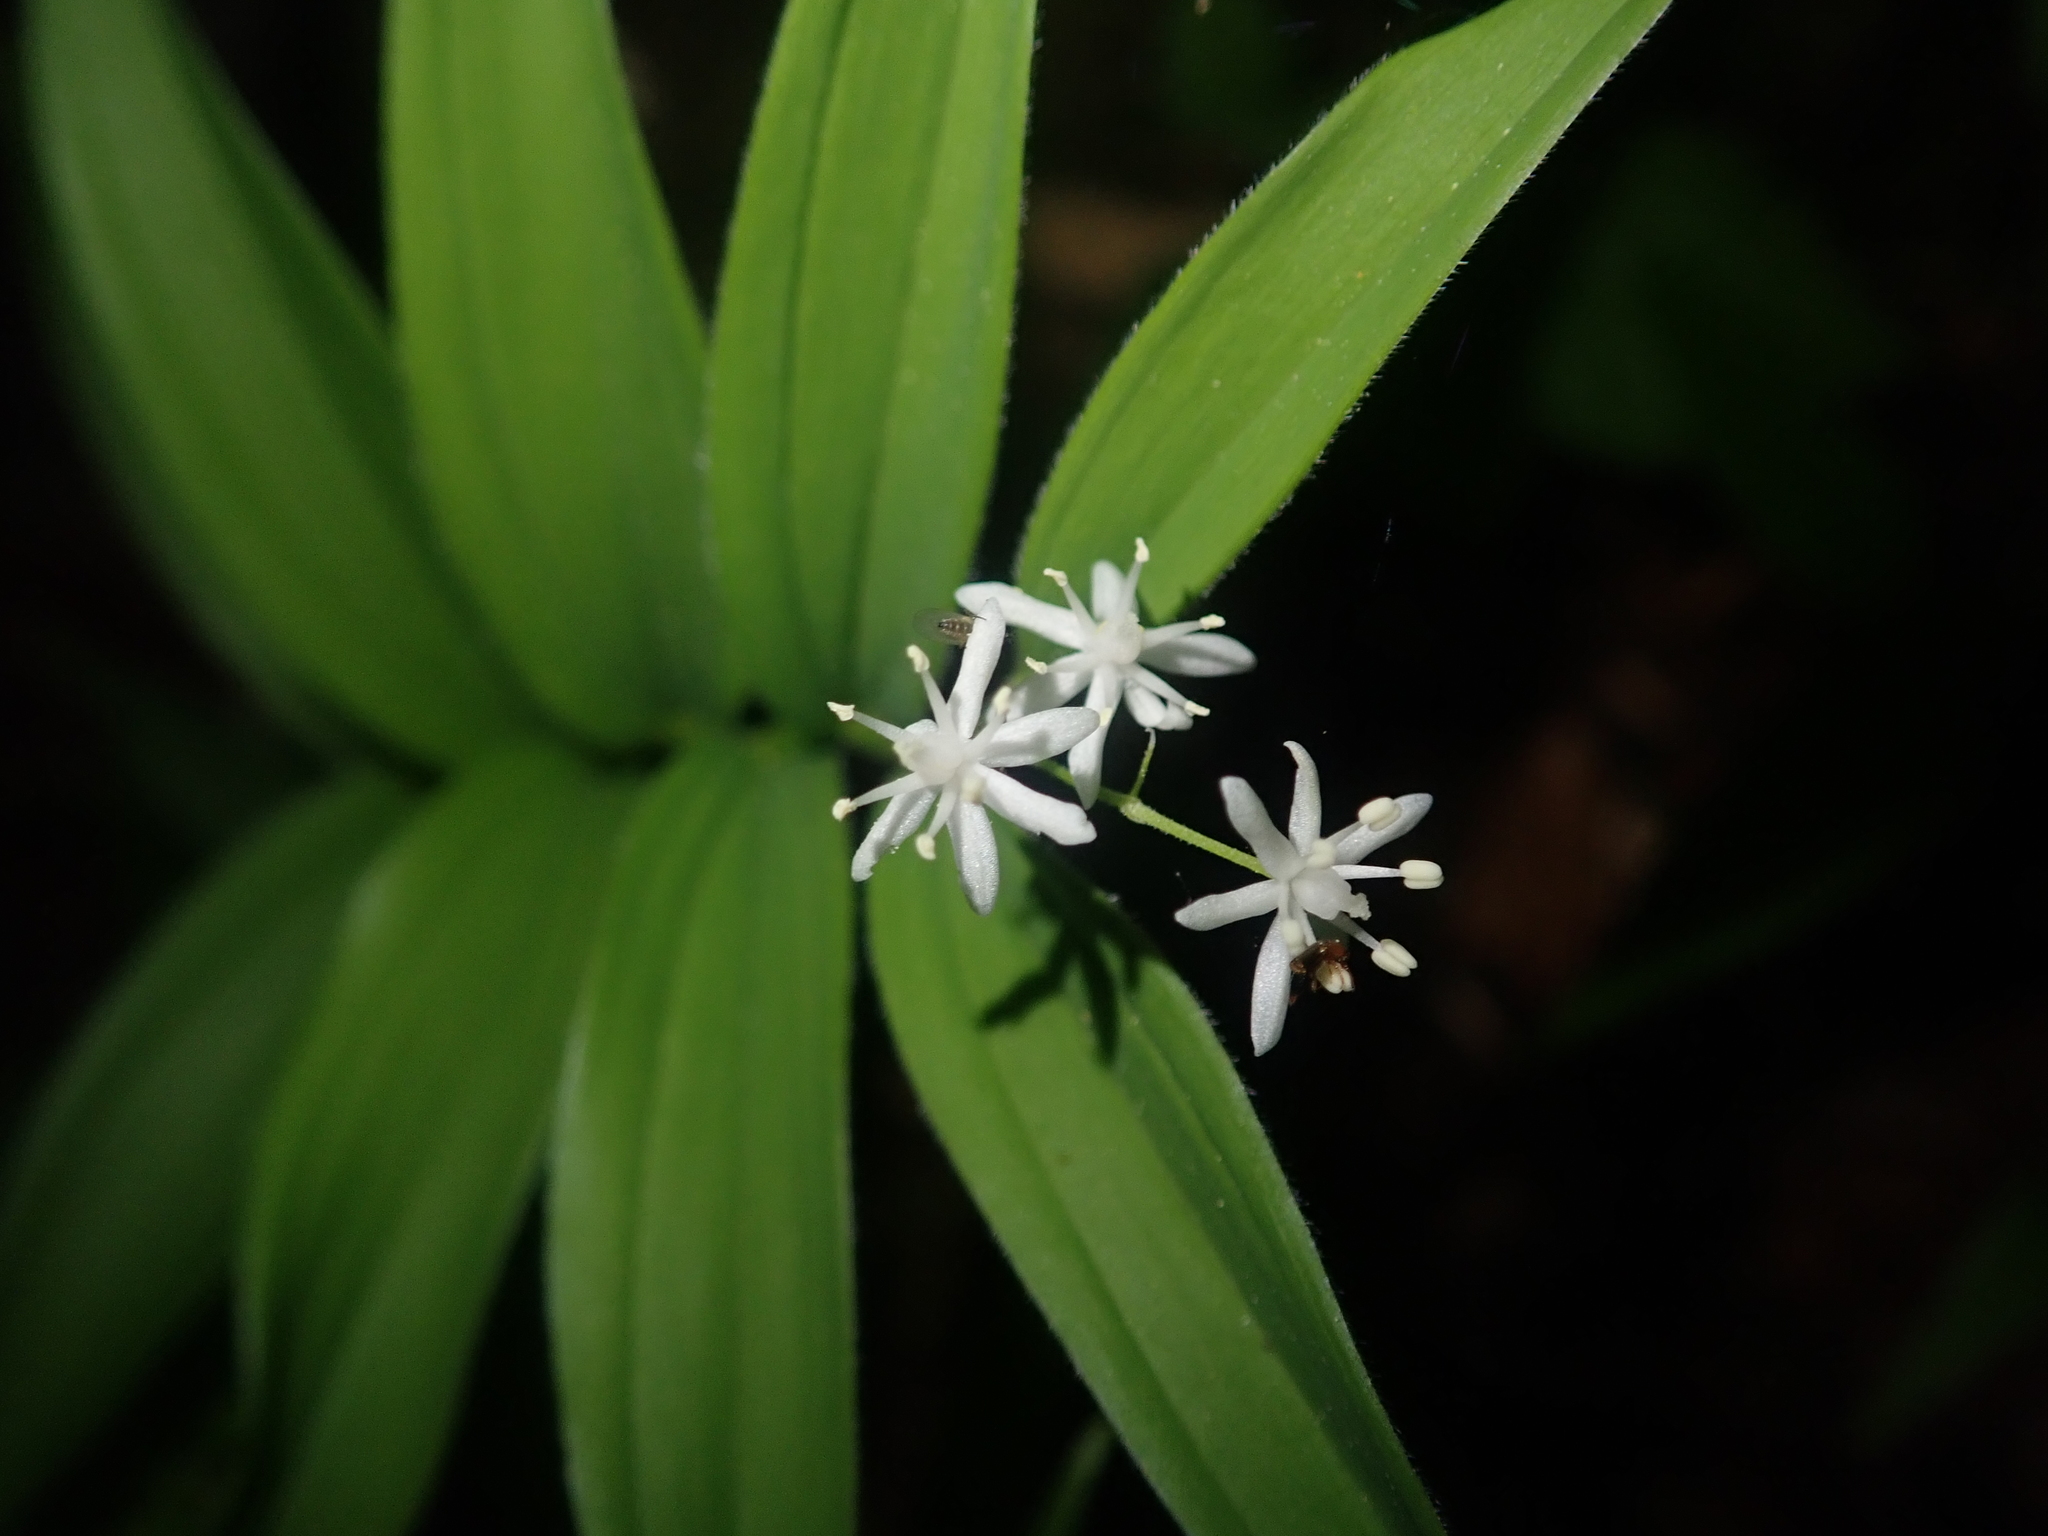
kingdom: Plantae
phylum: Tracheophyta
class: Liliopsida
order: Asparagales
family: Asparagaceae
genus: Maianthemum
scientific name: Maianthemum stellatum
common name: Little false solomon's seal
